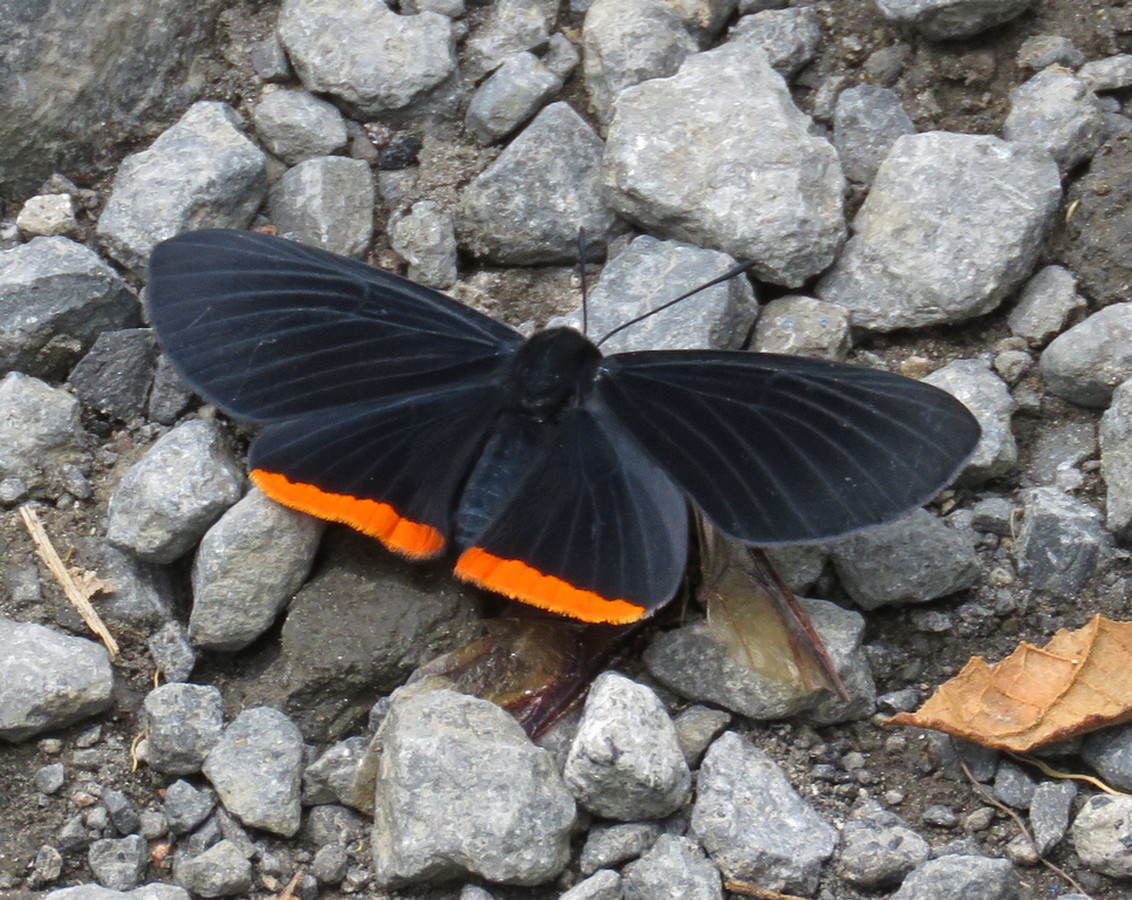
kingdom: Animalia
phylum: Arthropoda
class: Insecta
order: Lepidoptera
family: Lycaenidae
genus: Melanis
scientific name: Melanis
